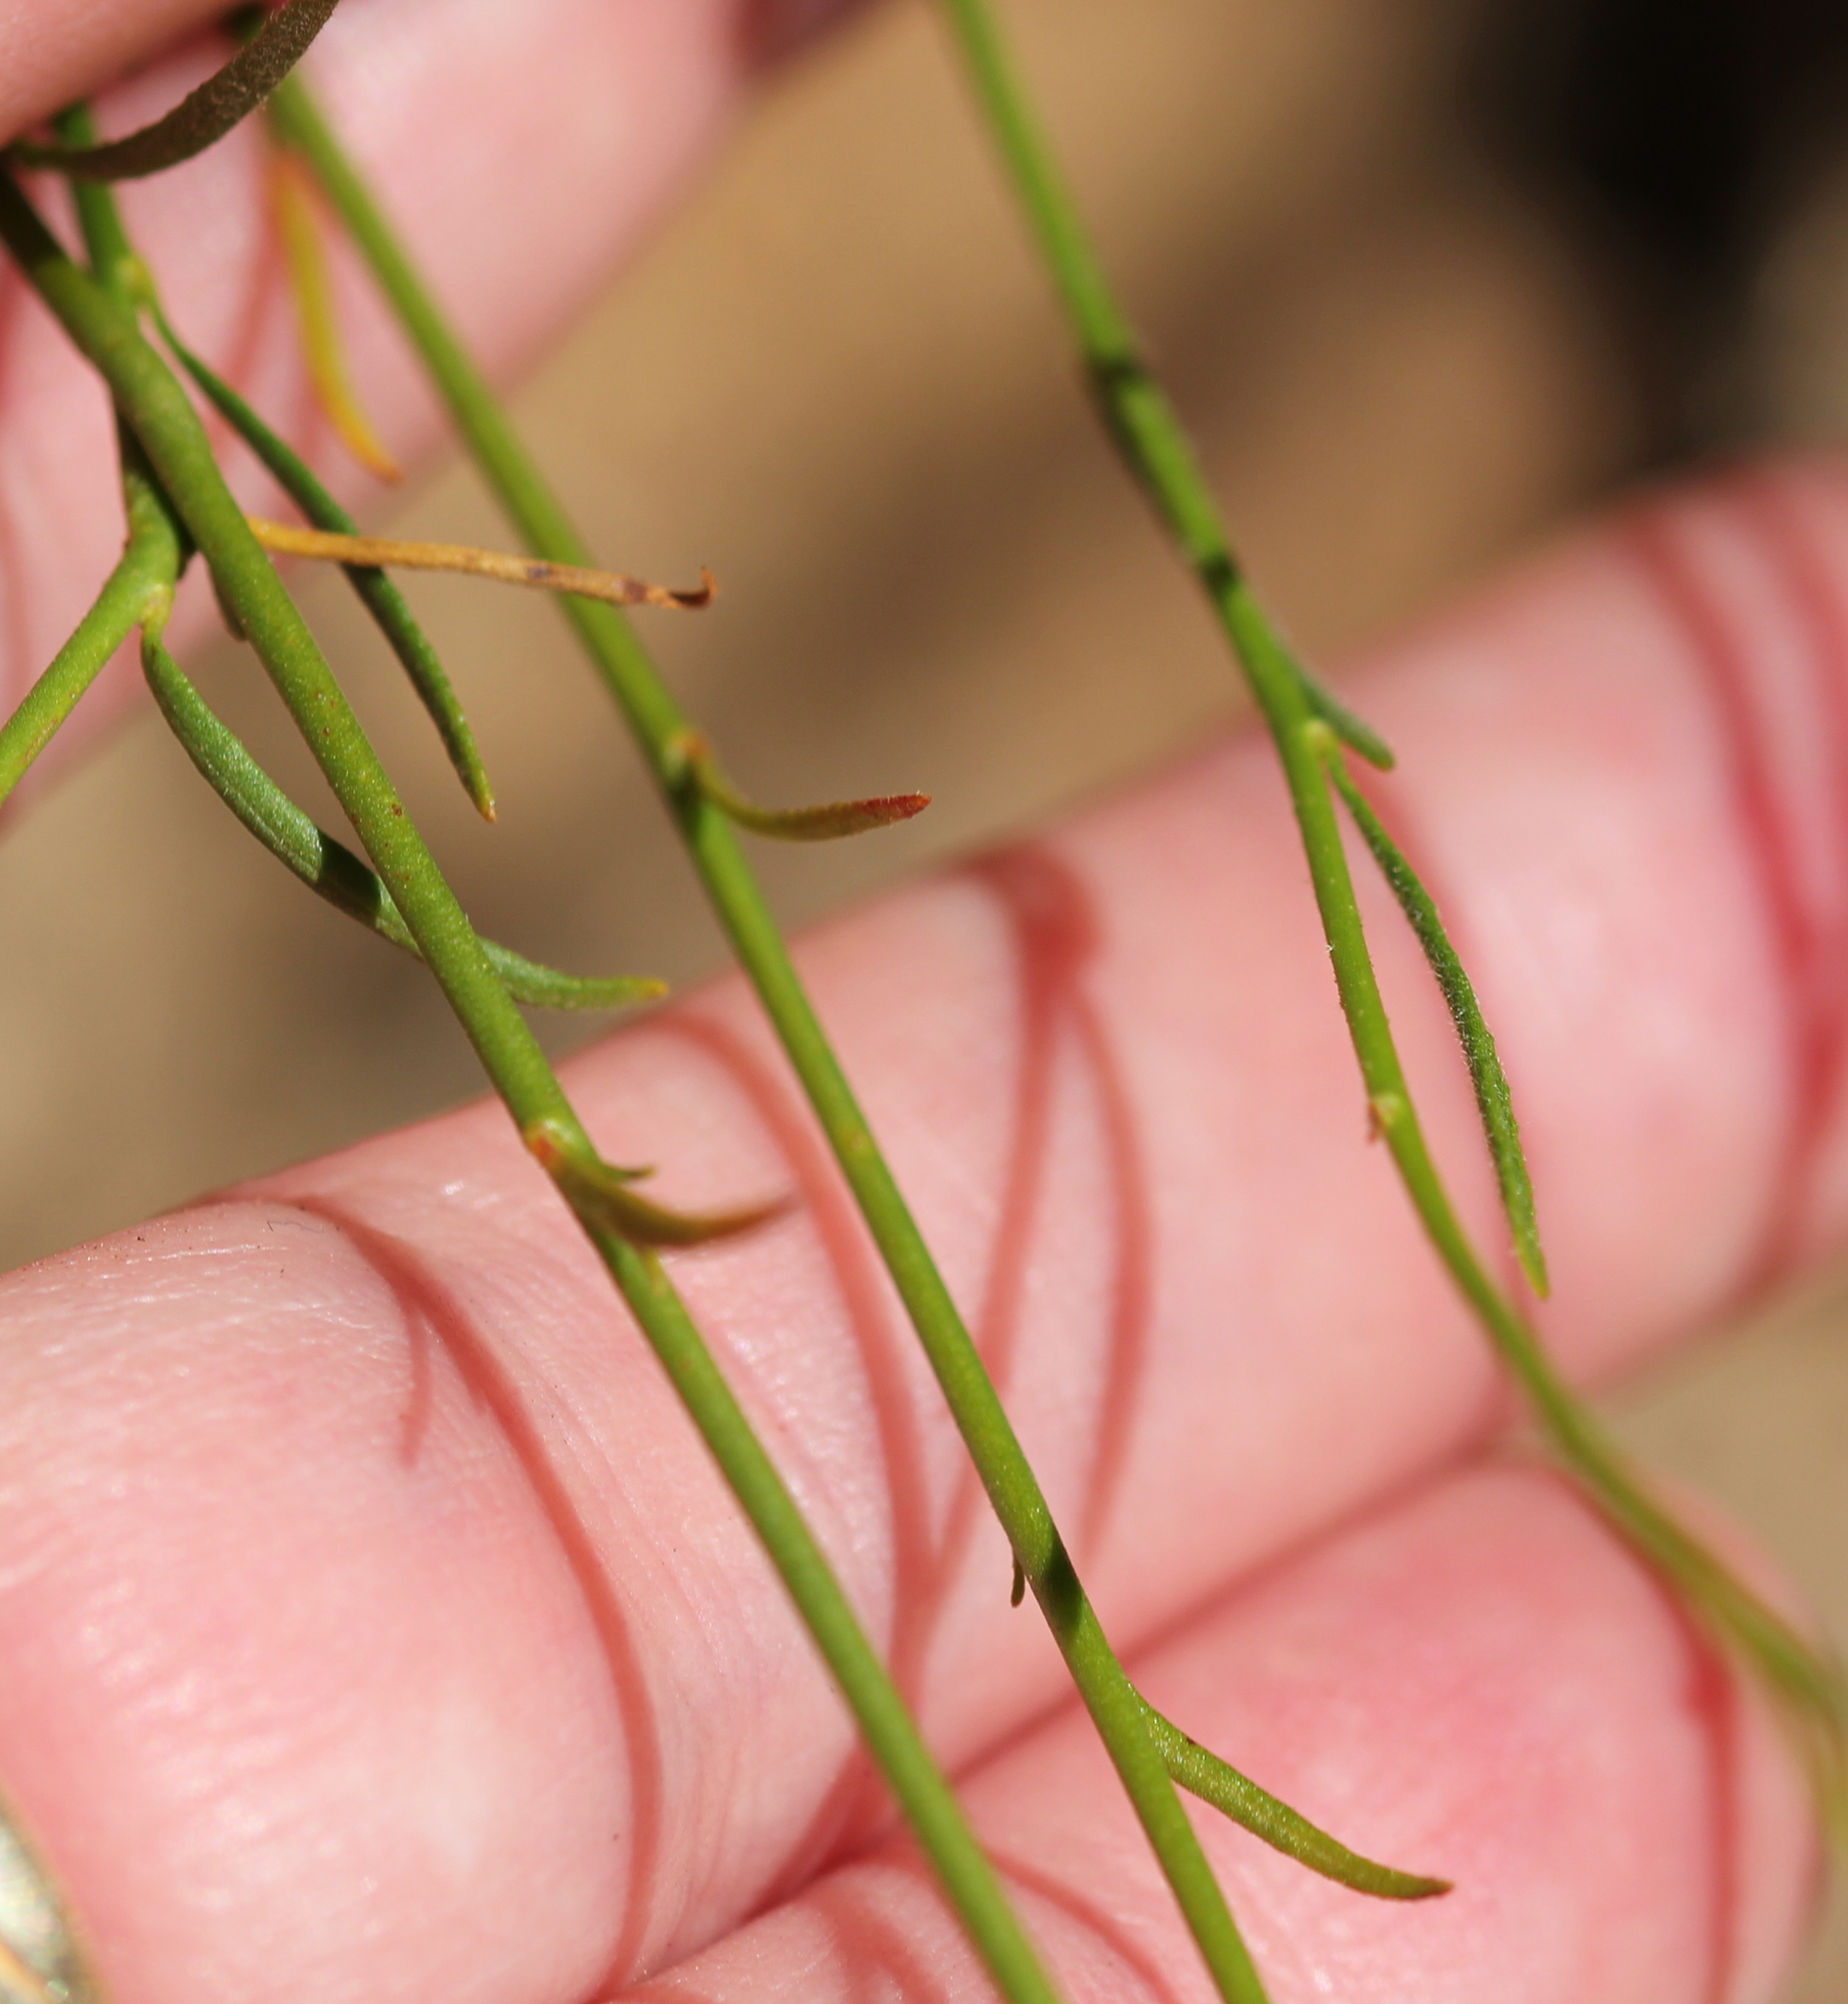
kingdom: Plantae
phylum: Tracheophyta
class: Magnoliopsida
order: Malvales
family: Cistaceae
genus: Crocanthemum
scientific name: Crocanthemum scoparium
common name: Broom-rose
